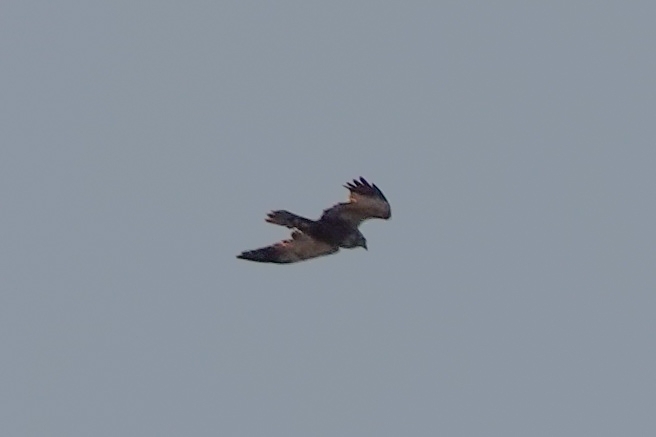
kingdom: Animalia
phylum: Chordata
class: Aves
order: Accipitriformes
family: Accipitridae
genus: Circus
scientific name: Circus aeruginosus
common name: Western marsh harrier
